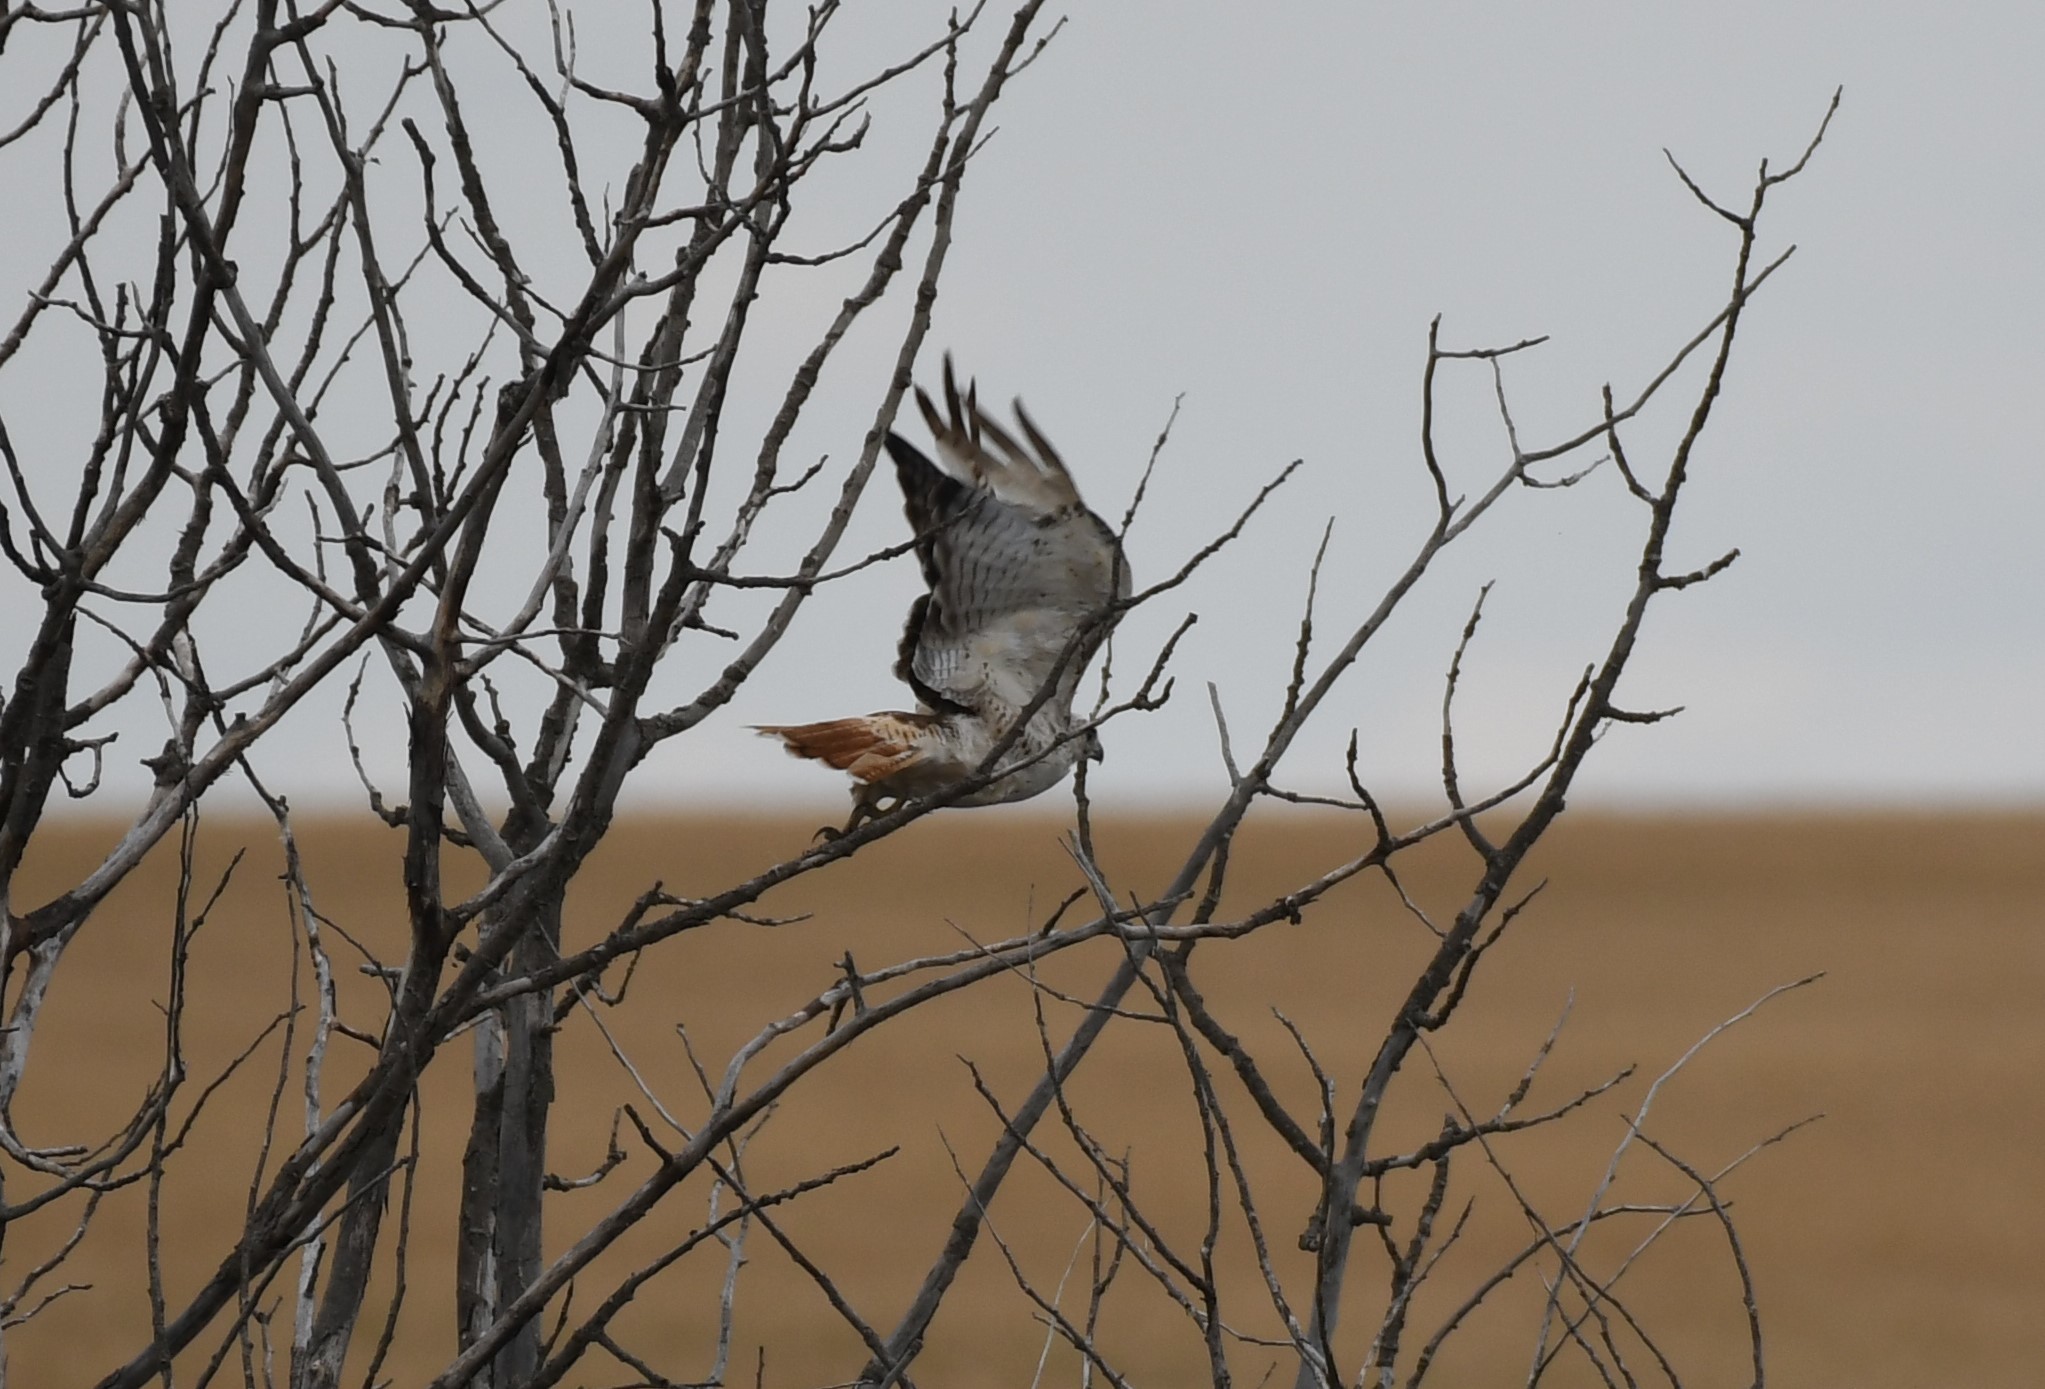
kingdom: Animalia
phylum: Chordata
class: Aves
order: Accipitriformes
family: Accipitridae
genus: Buteo
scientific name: Buteo jamaicensis
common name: Red-tailed hawk
